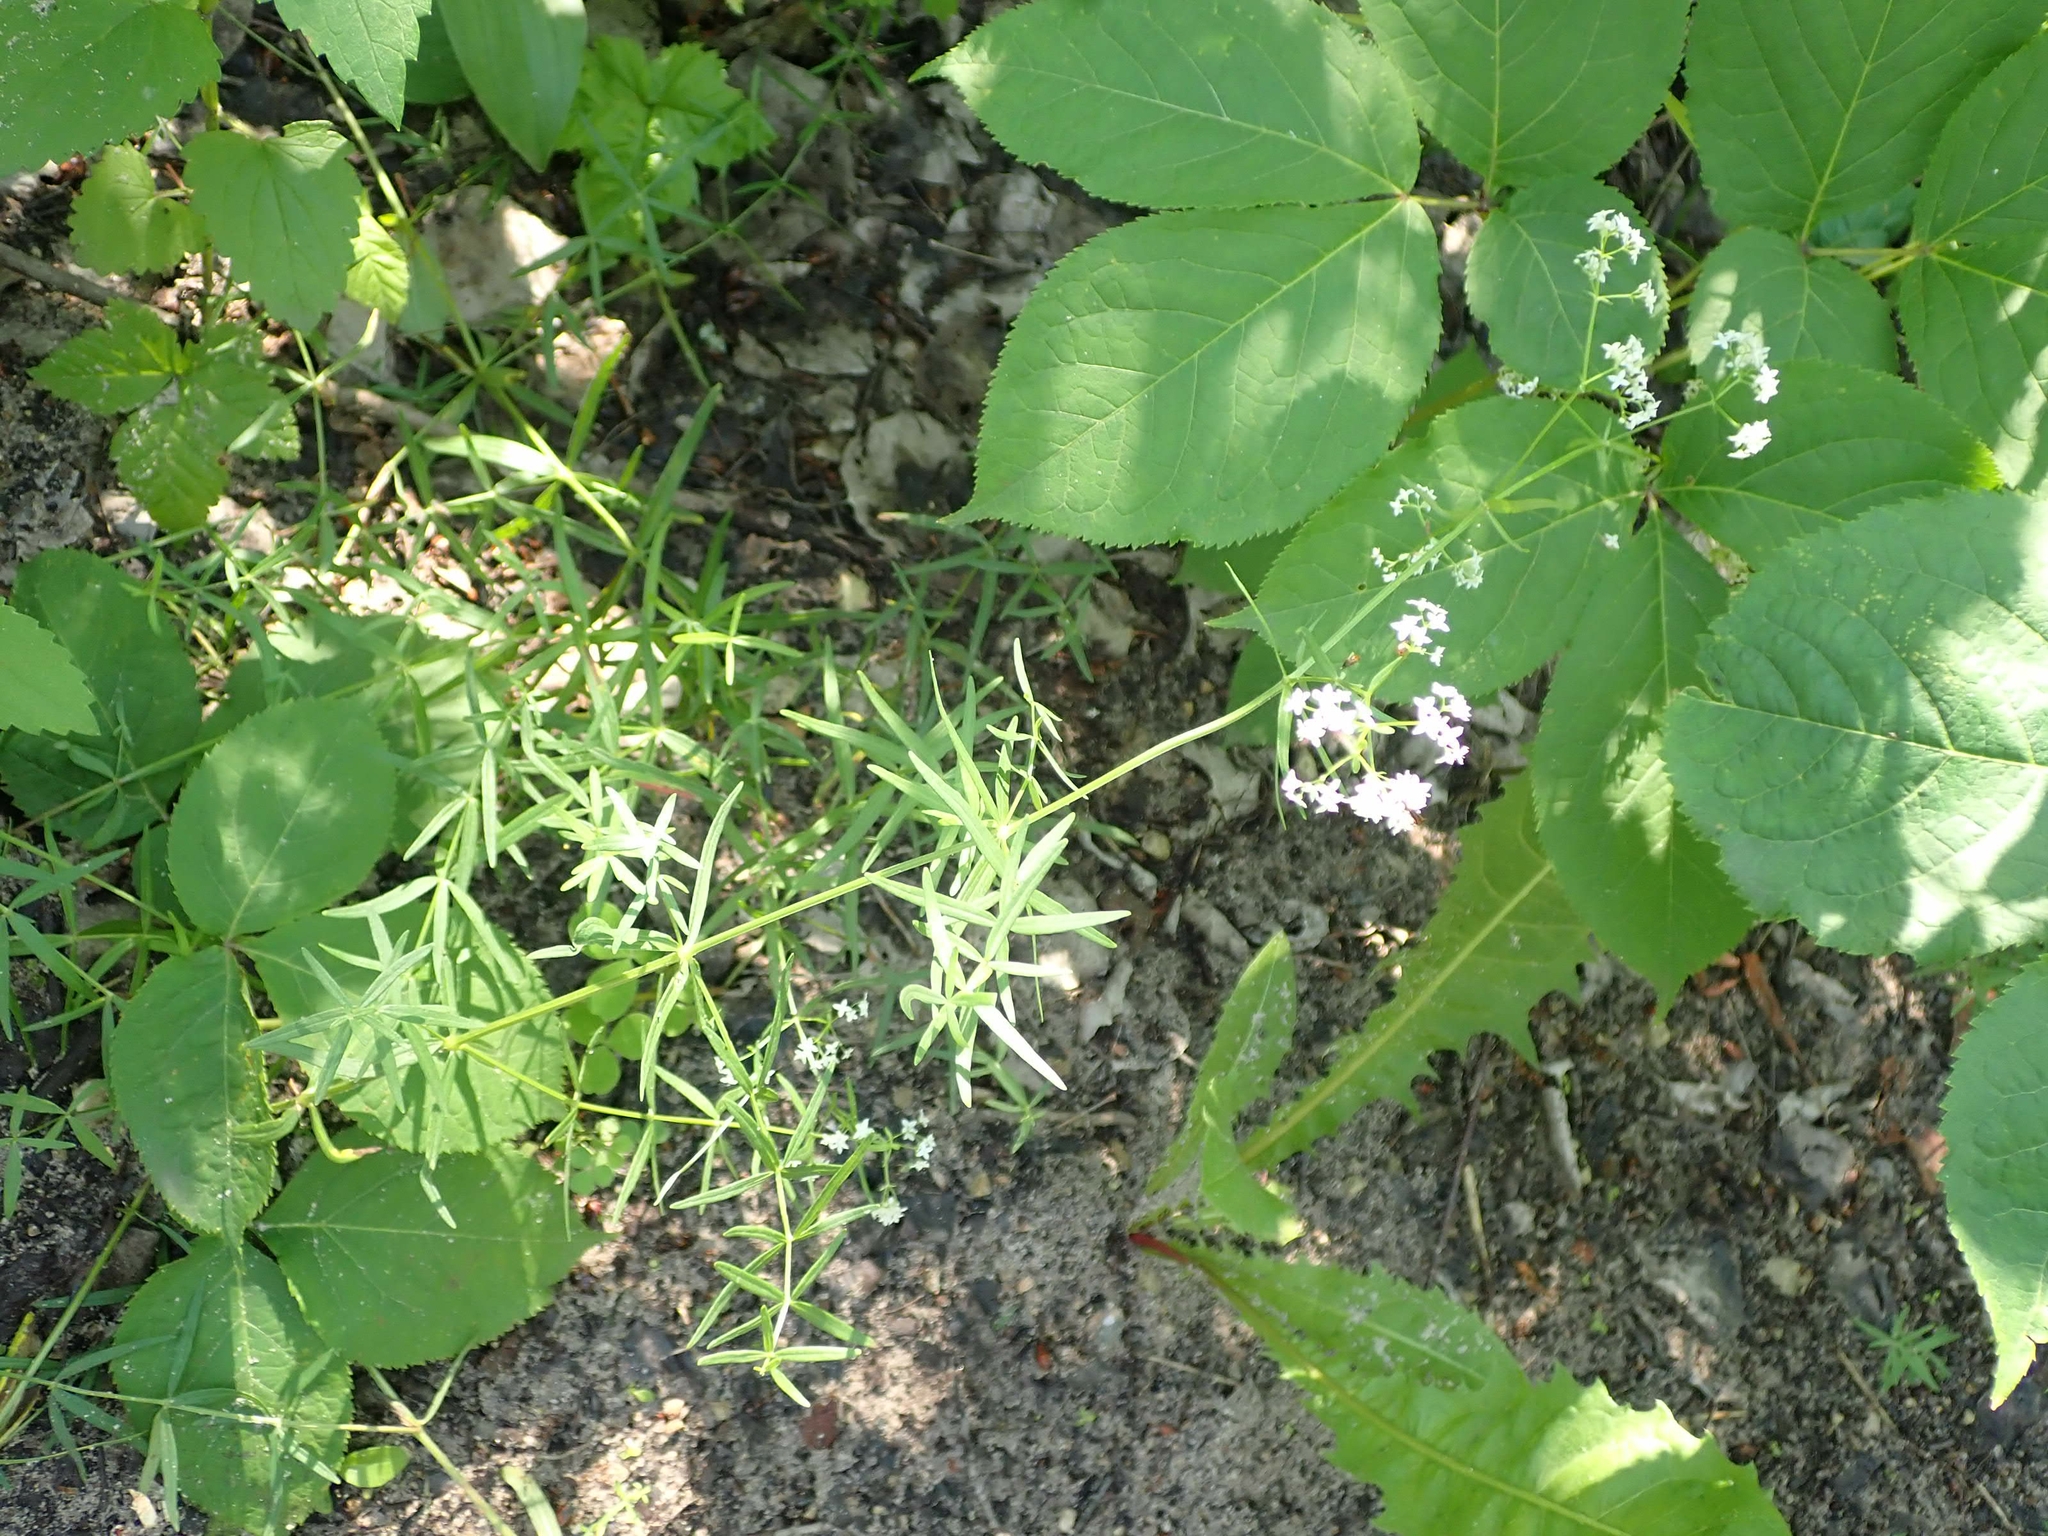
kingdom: Plantae
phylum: Tracheophyta
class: Magnoliopsida
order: Gentianales
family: Rubiaceae
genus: Galium
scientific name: Galium boreale
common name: Northern bedstraw
